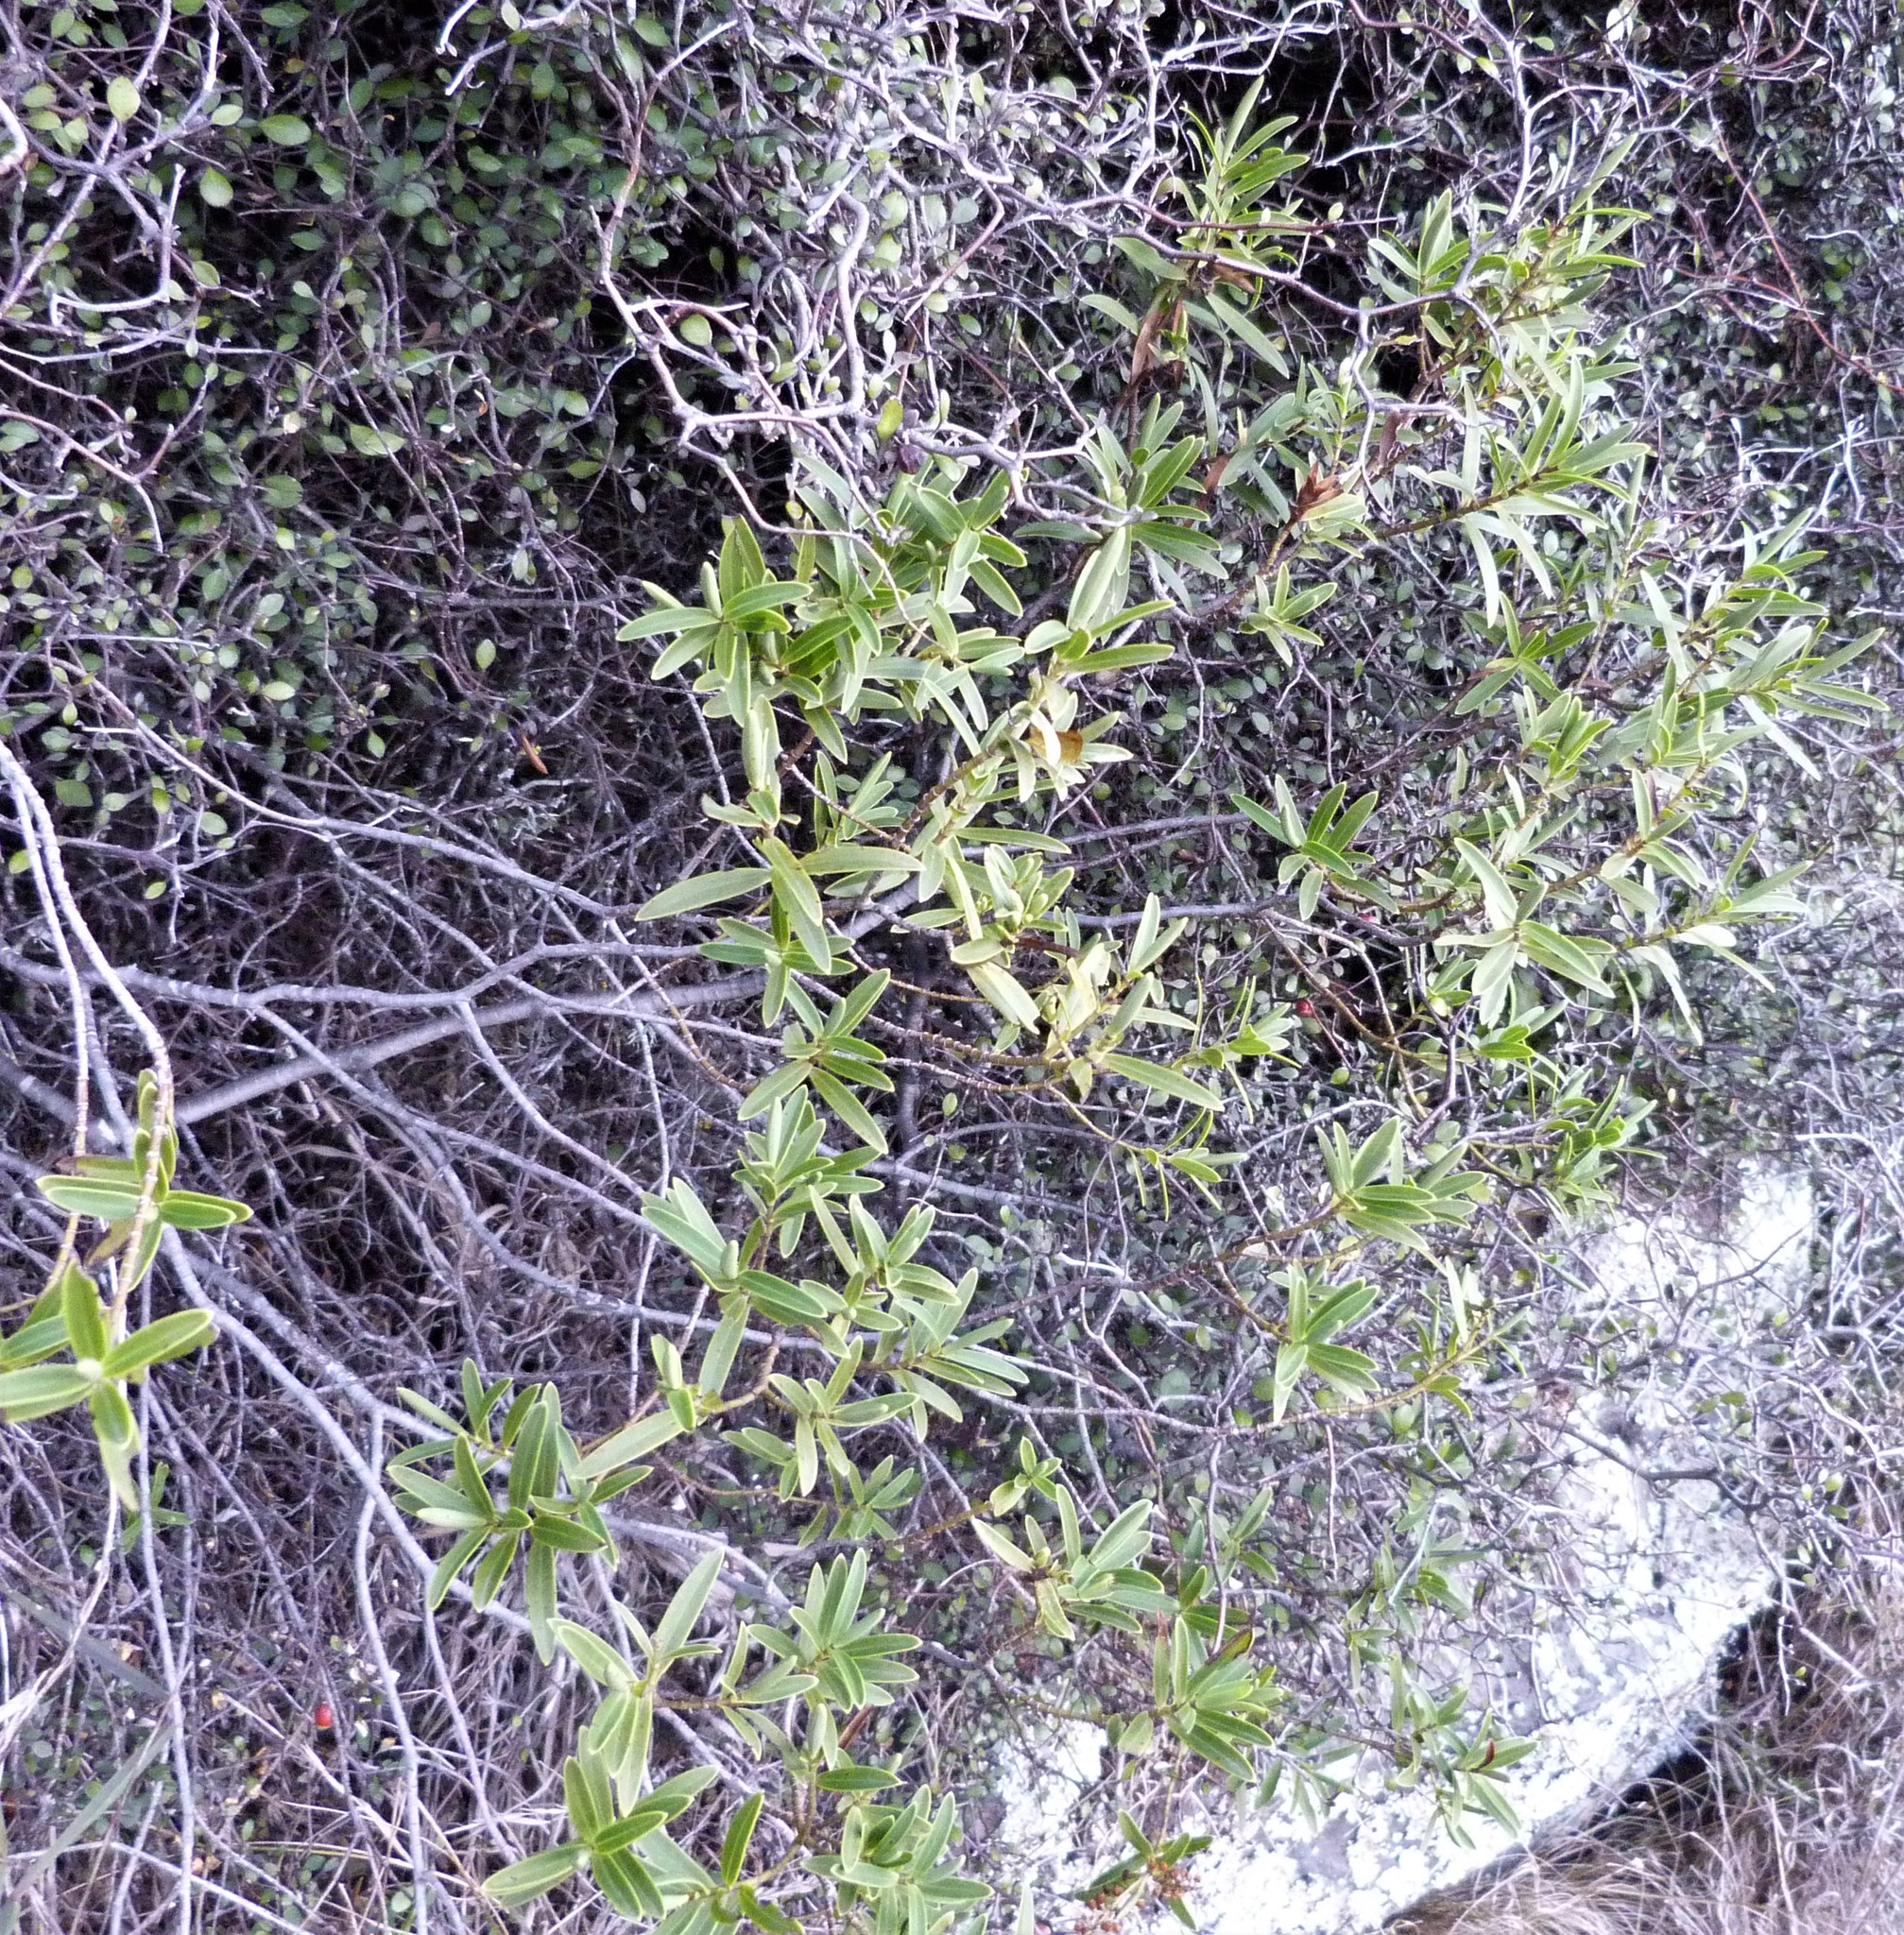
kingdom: Plantae
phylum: Tracheophyta
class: Magnoliopsida
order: Lamiales
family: Plantaginaceae
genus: Veronica
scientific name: Veronica strictissima
